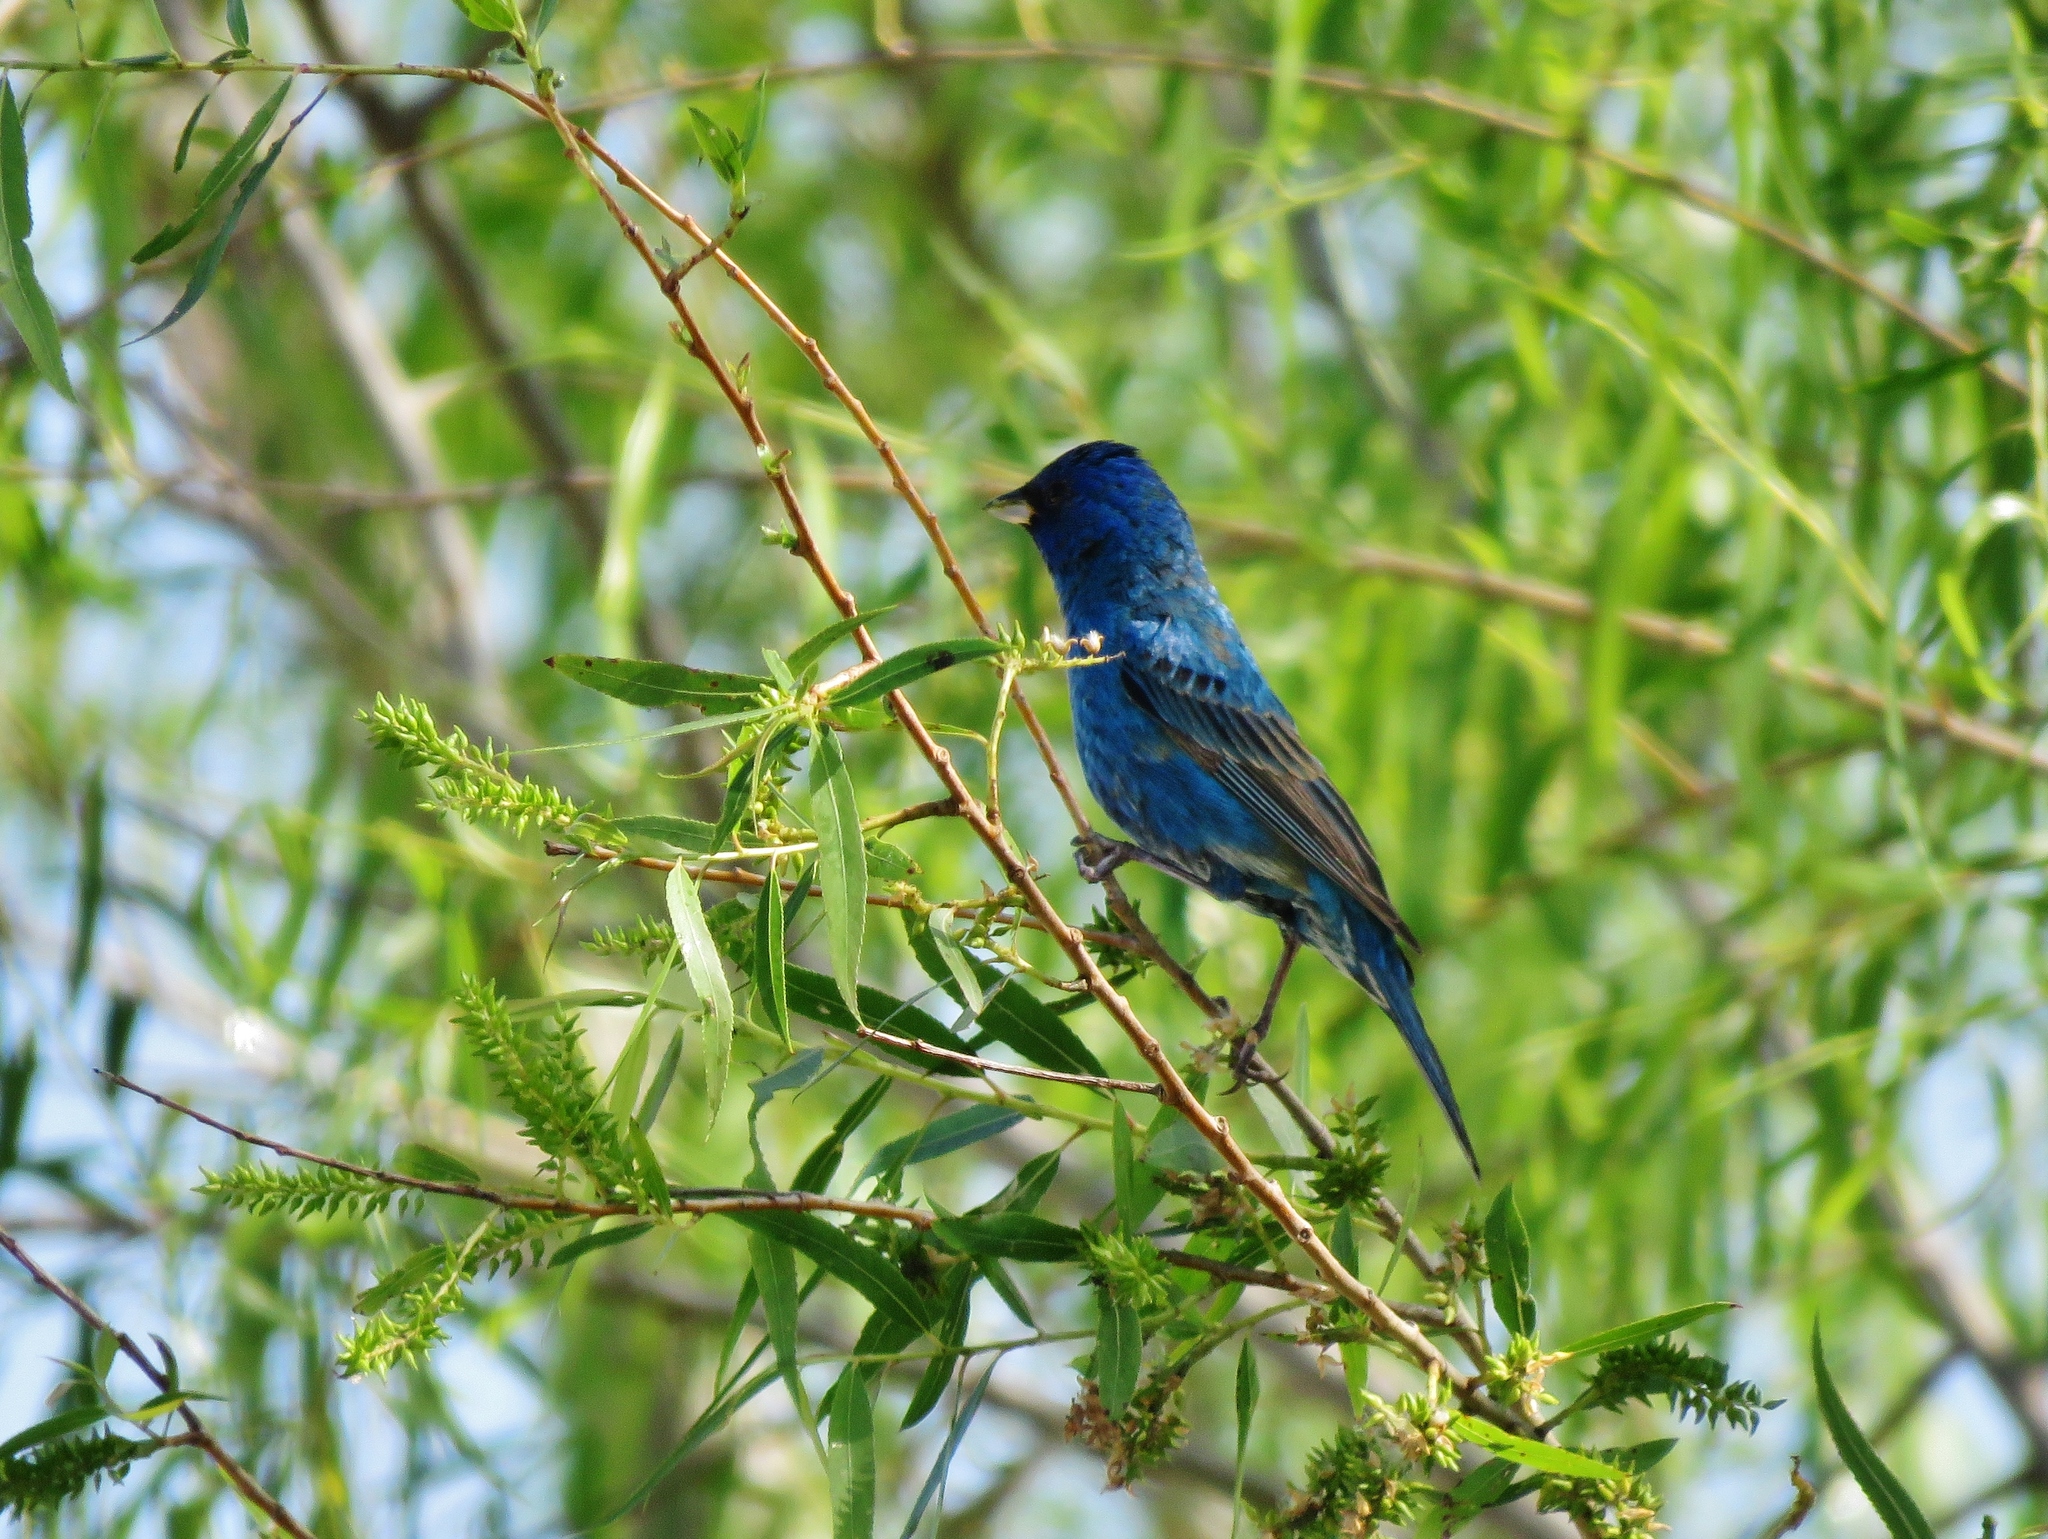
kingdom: Animalia
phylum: Chordata
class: Aves
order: Passeriformes
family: Cardinalidae
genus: Passerina
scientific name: Passerina cyanea
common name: Indigo bunting
